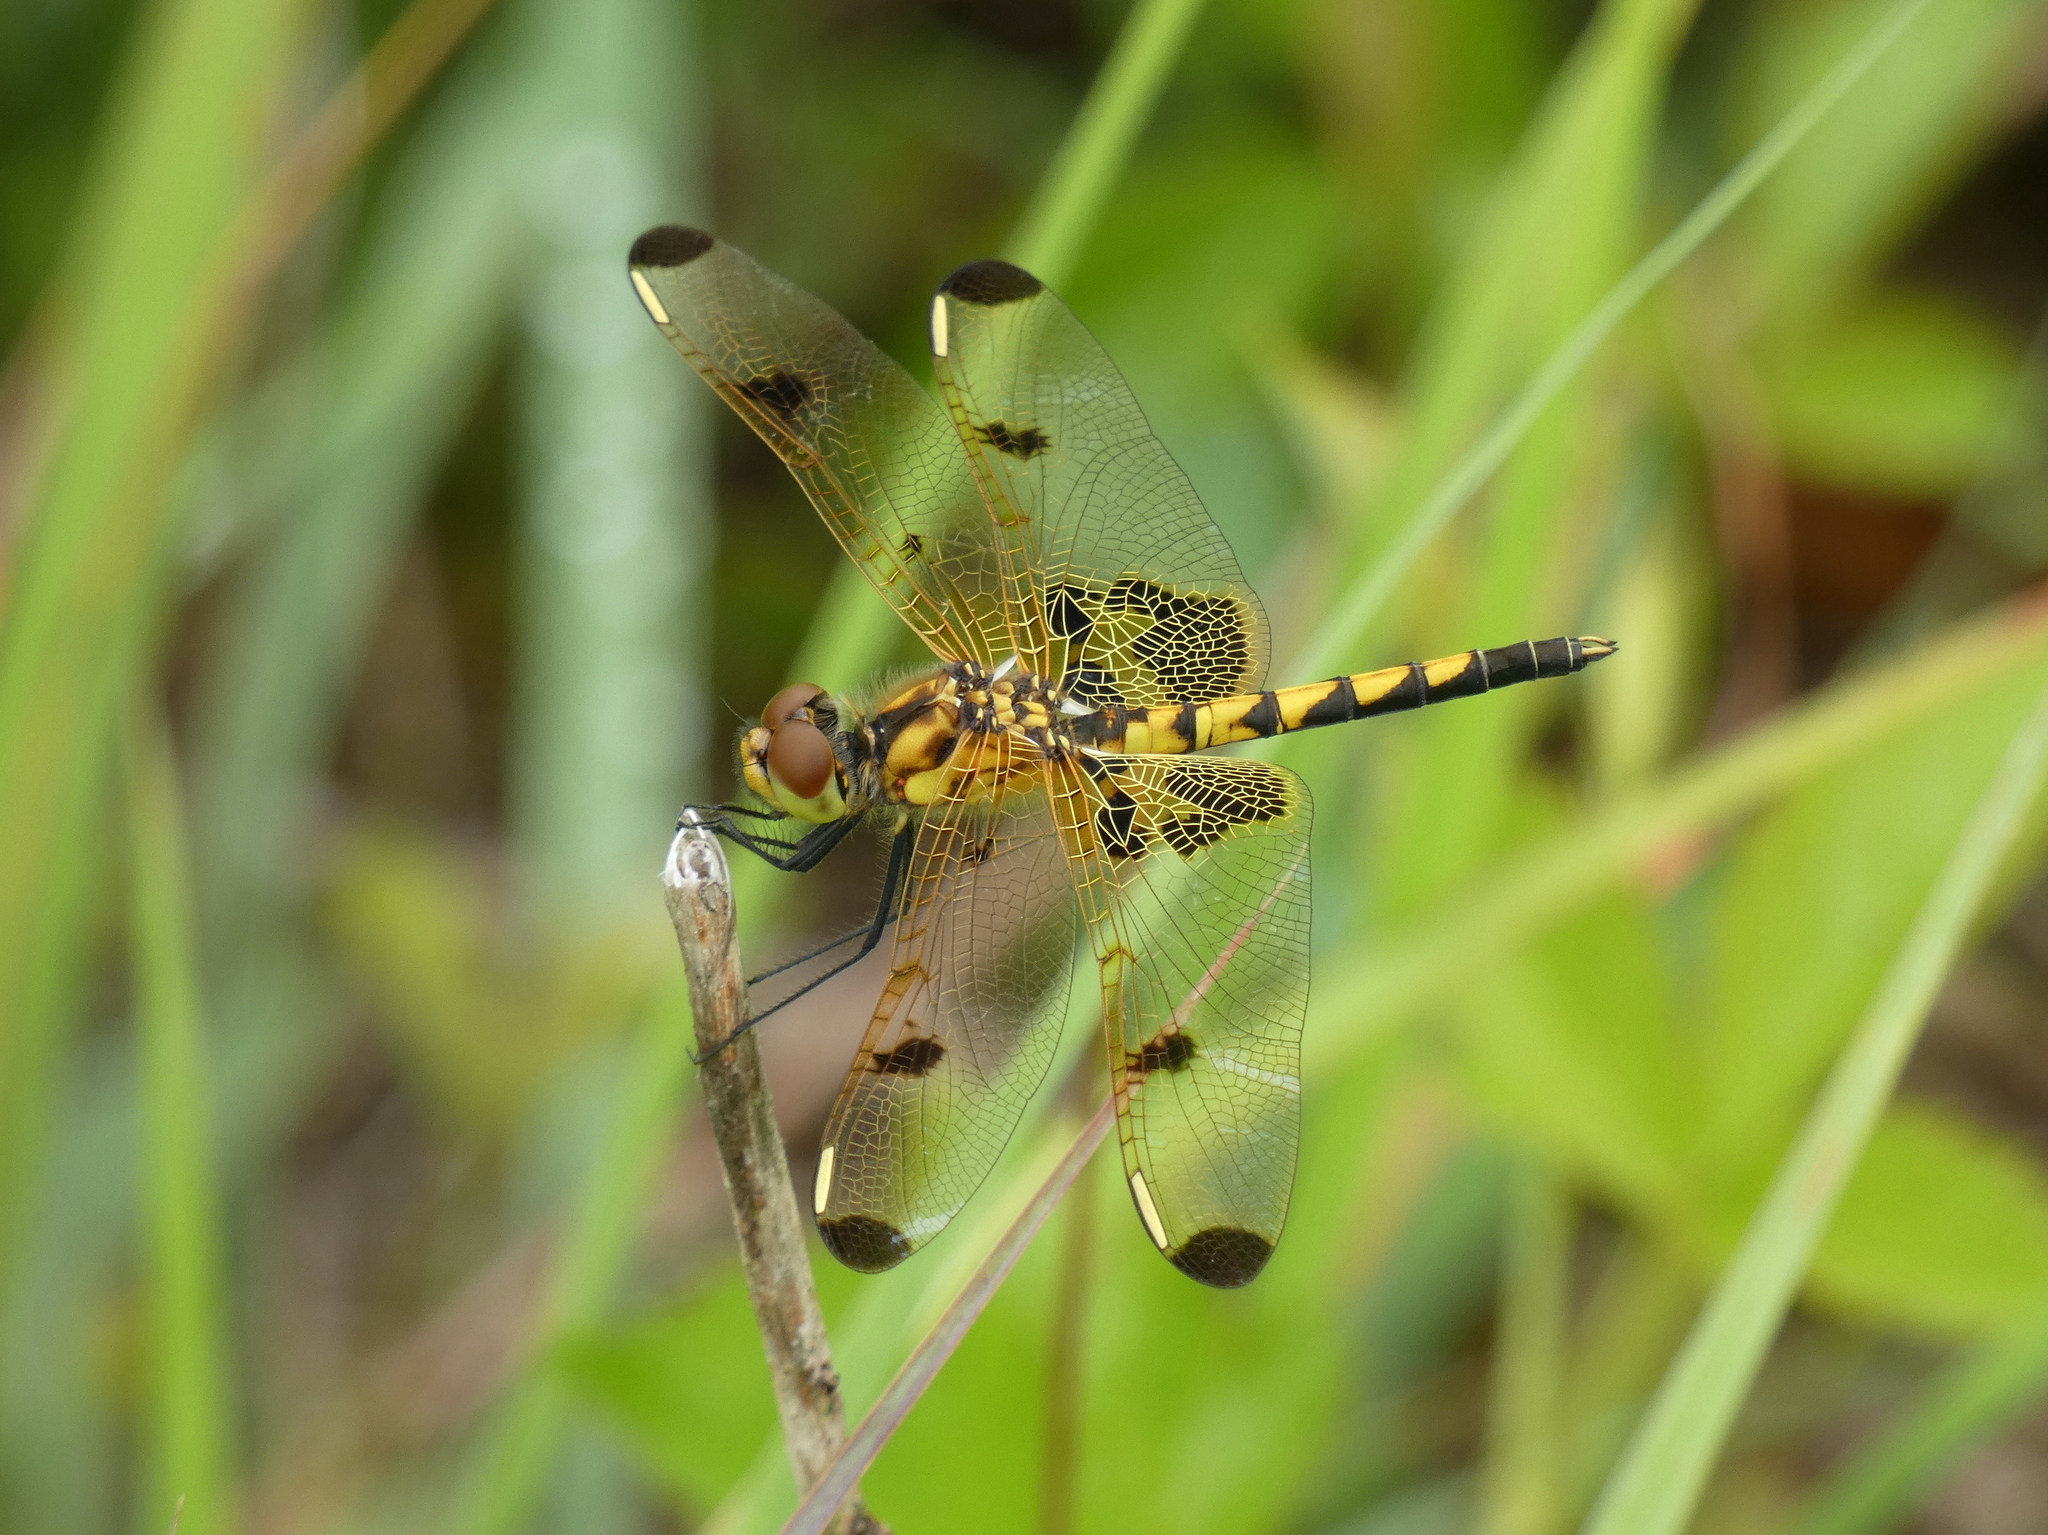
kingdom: Animalia
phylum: Arthropoda
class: Insecta
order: Odonata
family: Libellulidae
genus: Celithemis
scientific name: Celithemis elisa
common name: Calico pennant
